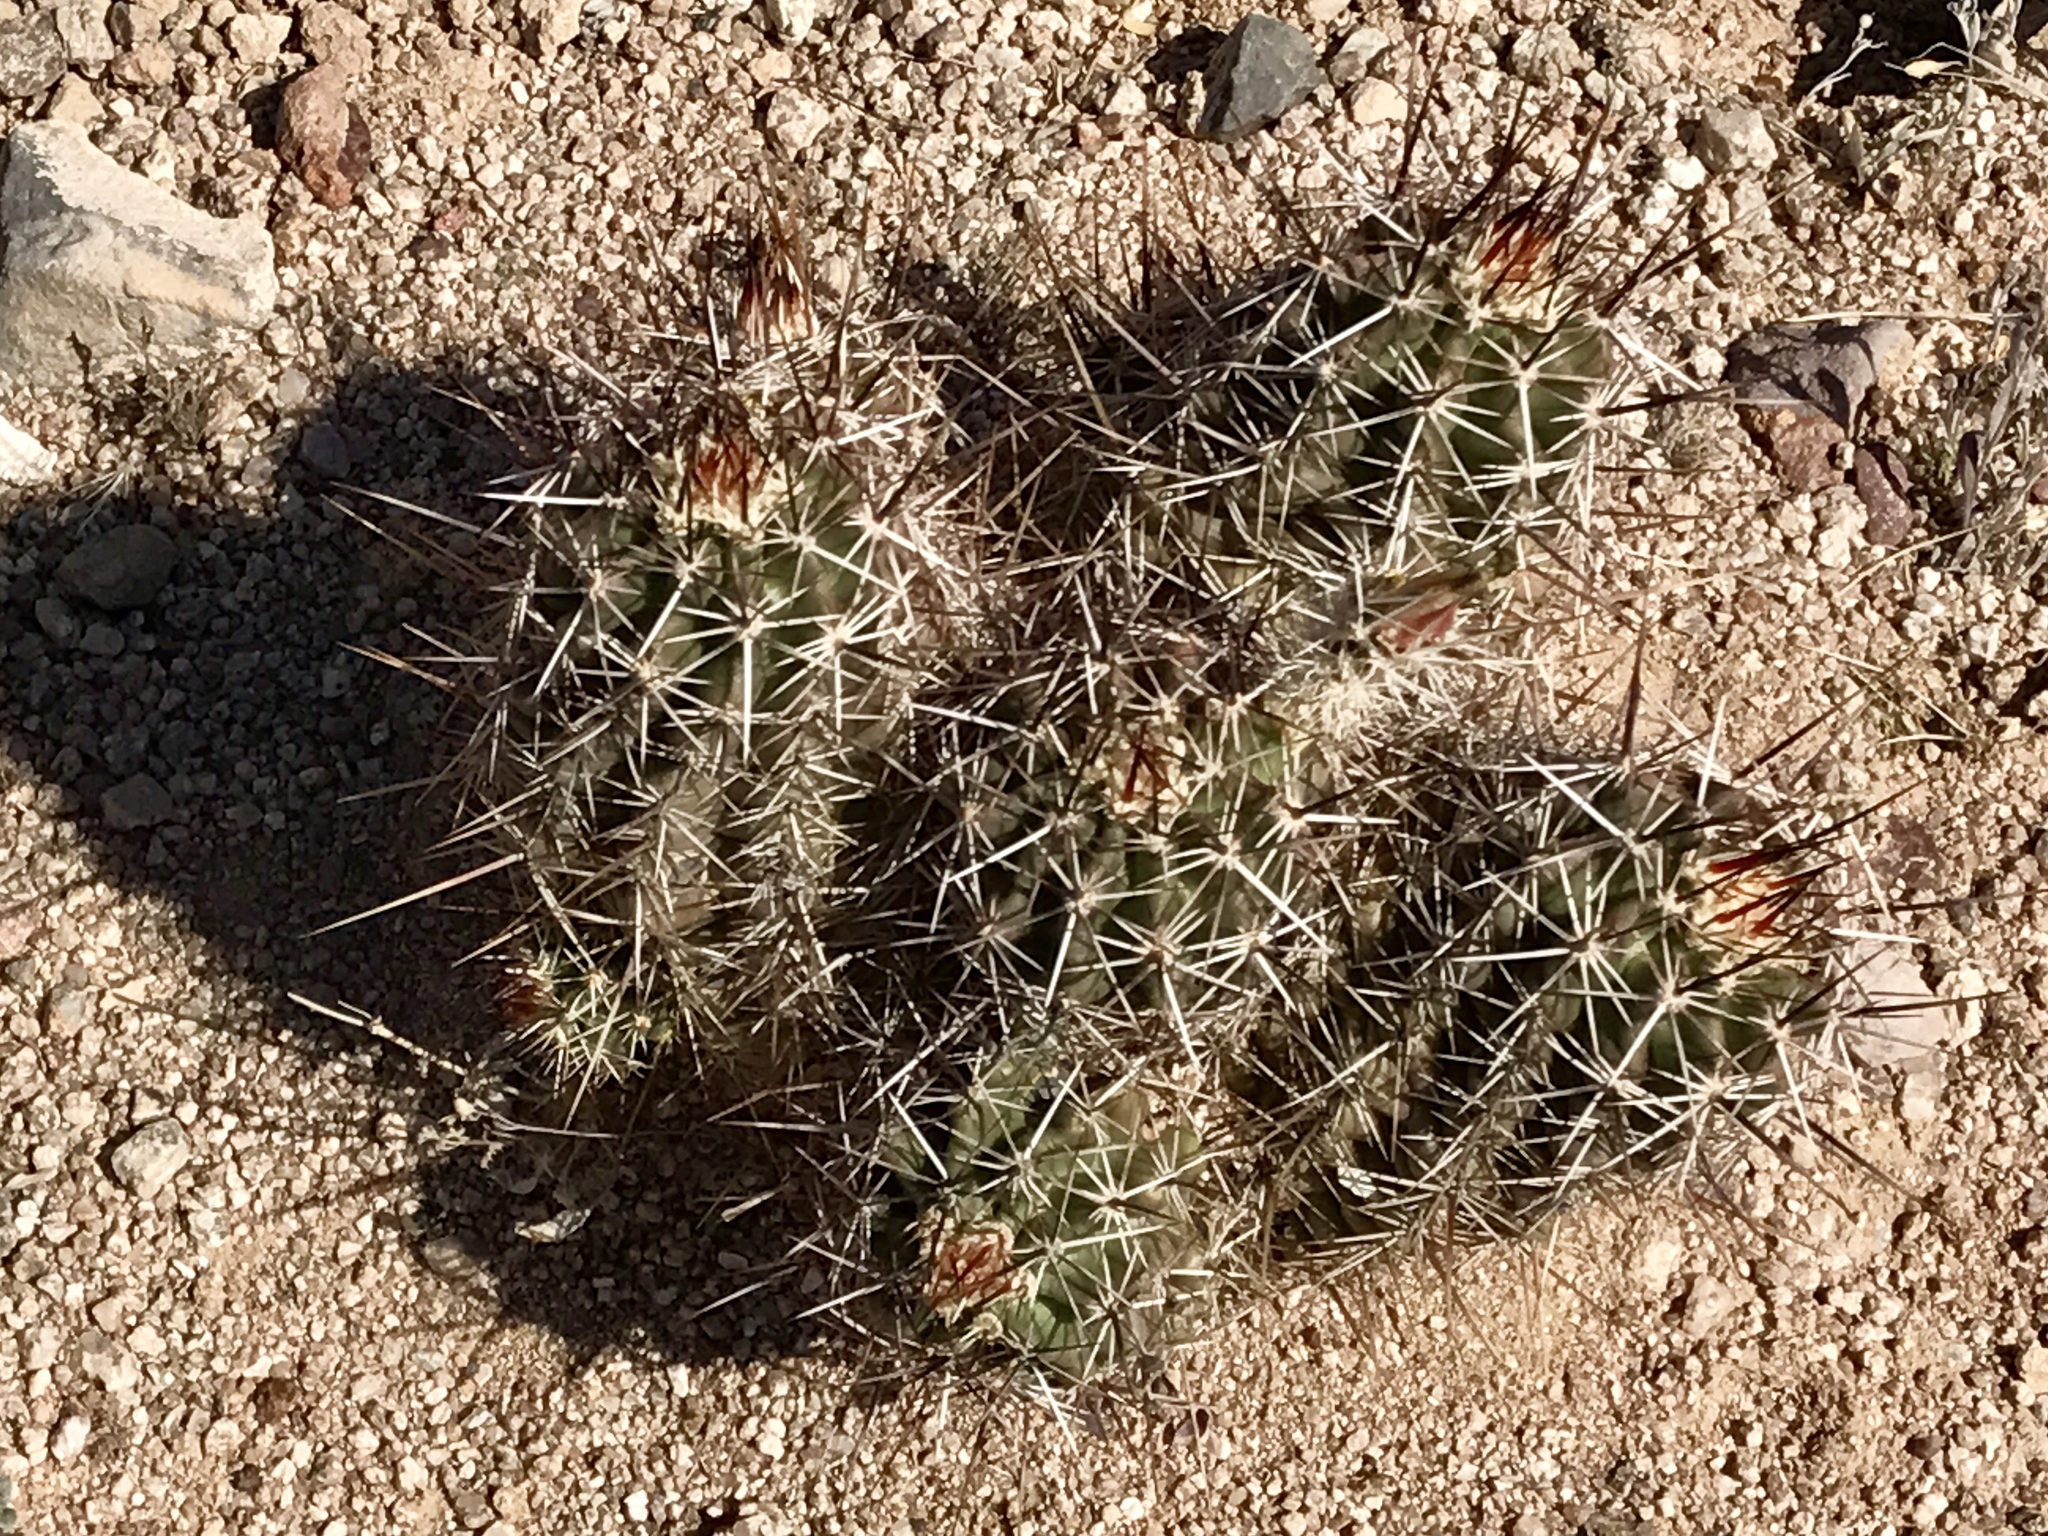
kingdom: Plantae
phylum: Tracheophyta
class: Magnoliopsida
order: Caryophyllales
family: Cactaceae
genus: Echinocereus
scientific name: Echinocereus fasciculatus
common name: Bundle hedgehog
